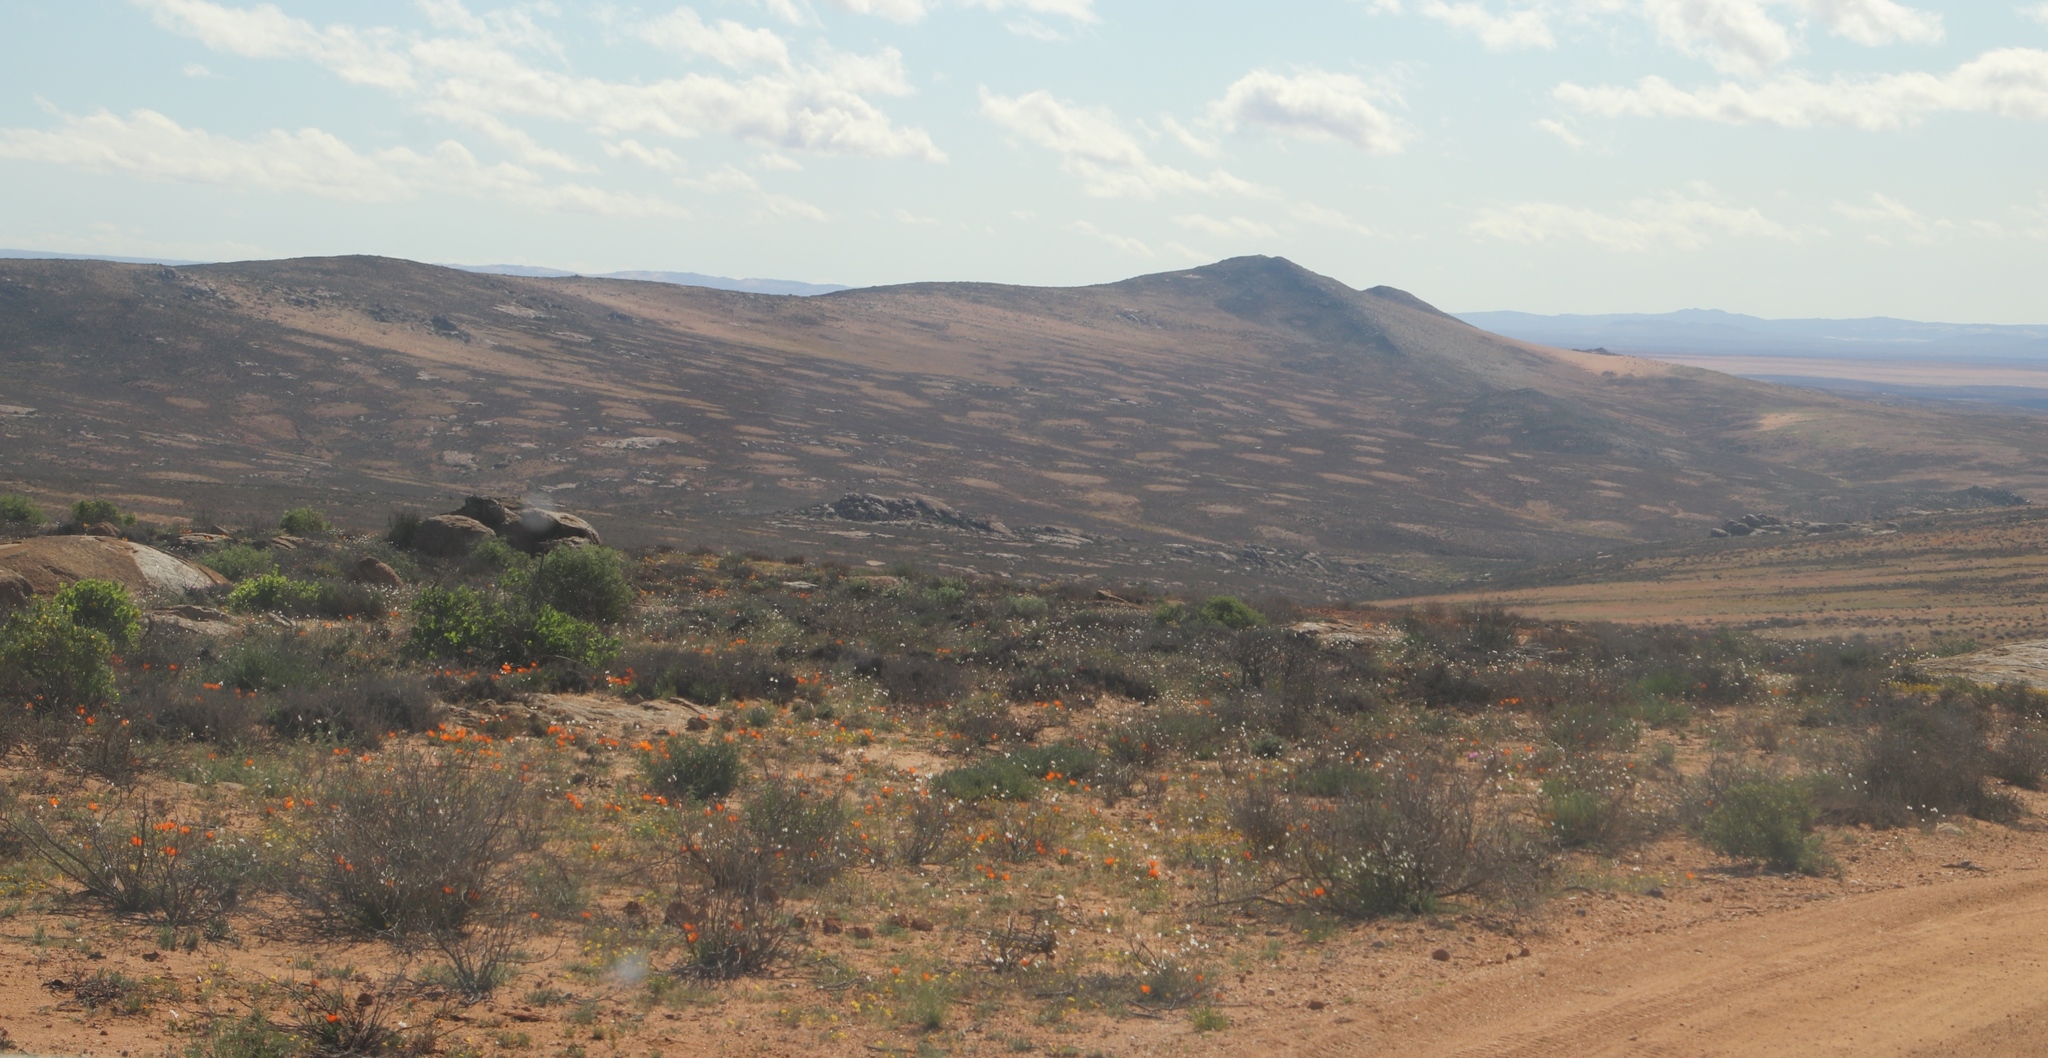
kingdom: Animalia
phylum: Arthropoda
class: Insecta
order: Blattodea
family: Hodotermitidae
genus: Microhodotermes
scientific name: Microhodotermes viator
